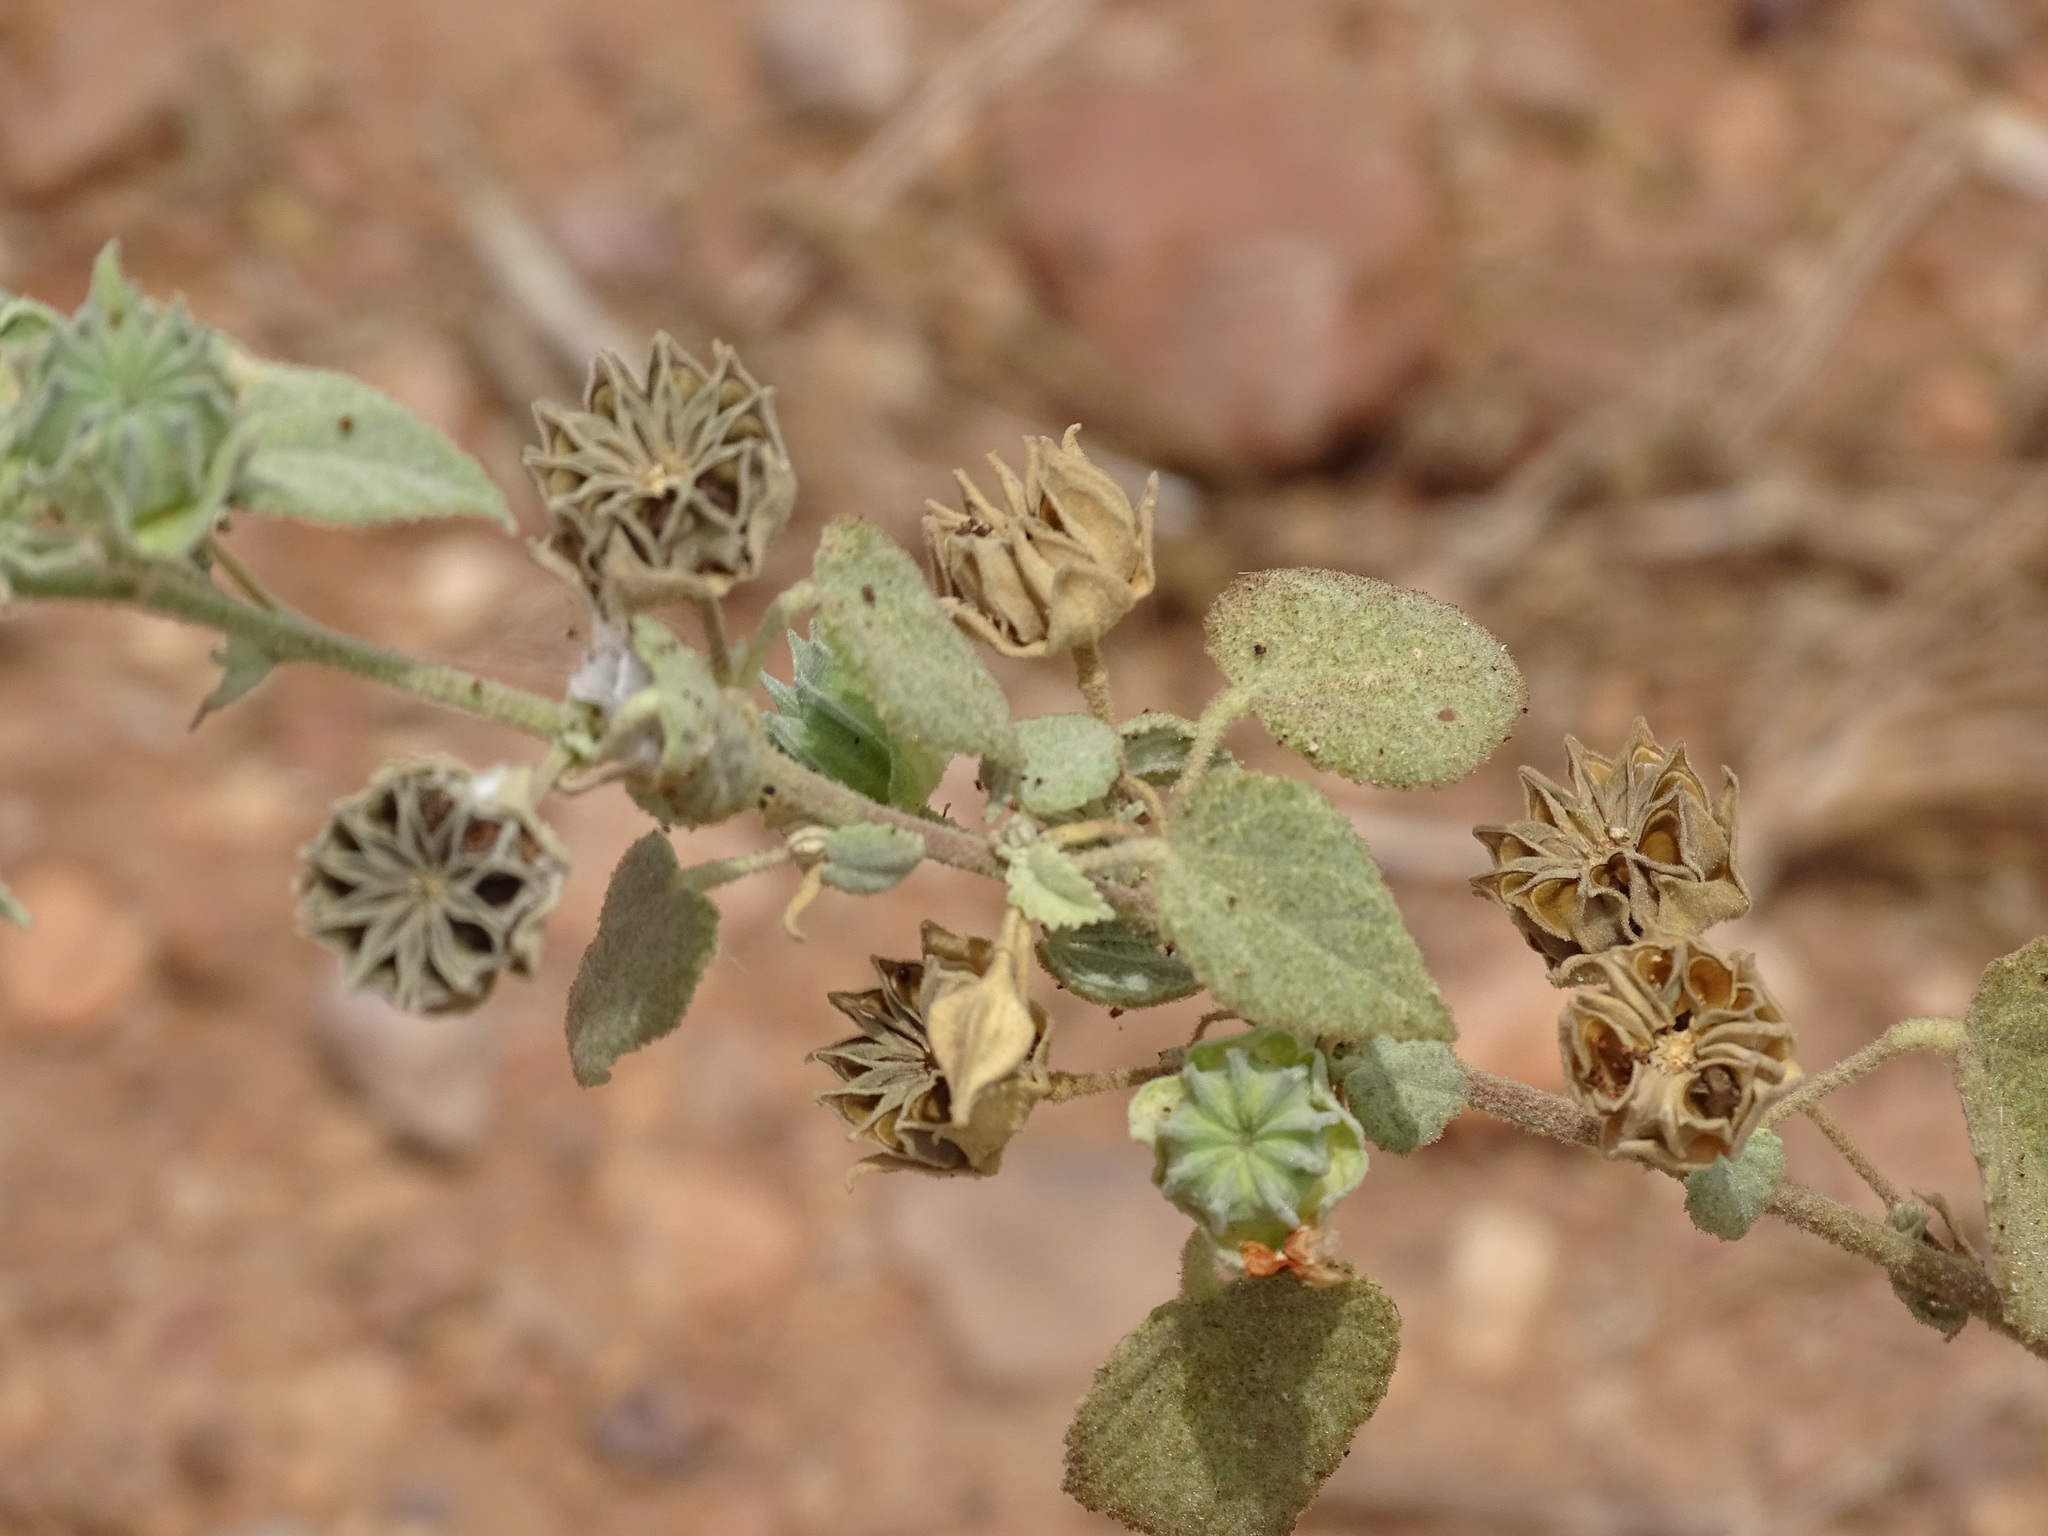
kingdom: Plantae
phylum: Tracheophyta
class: Magnoliopsida
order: Malvales
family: Malvaceae
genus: Abutilon
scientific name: Abutilon abutiloides
